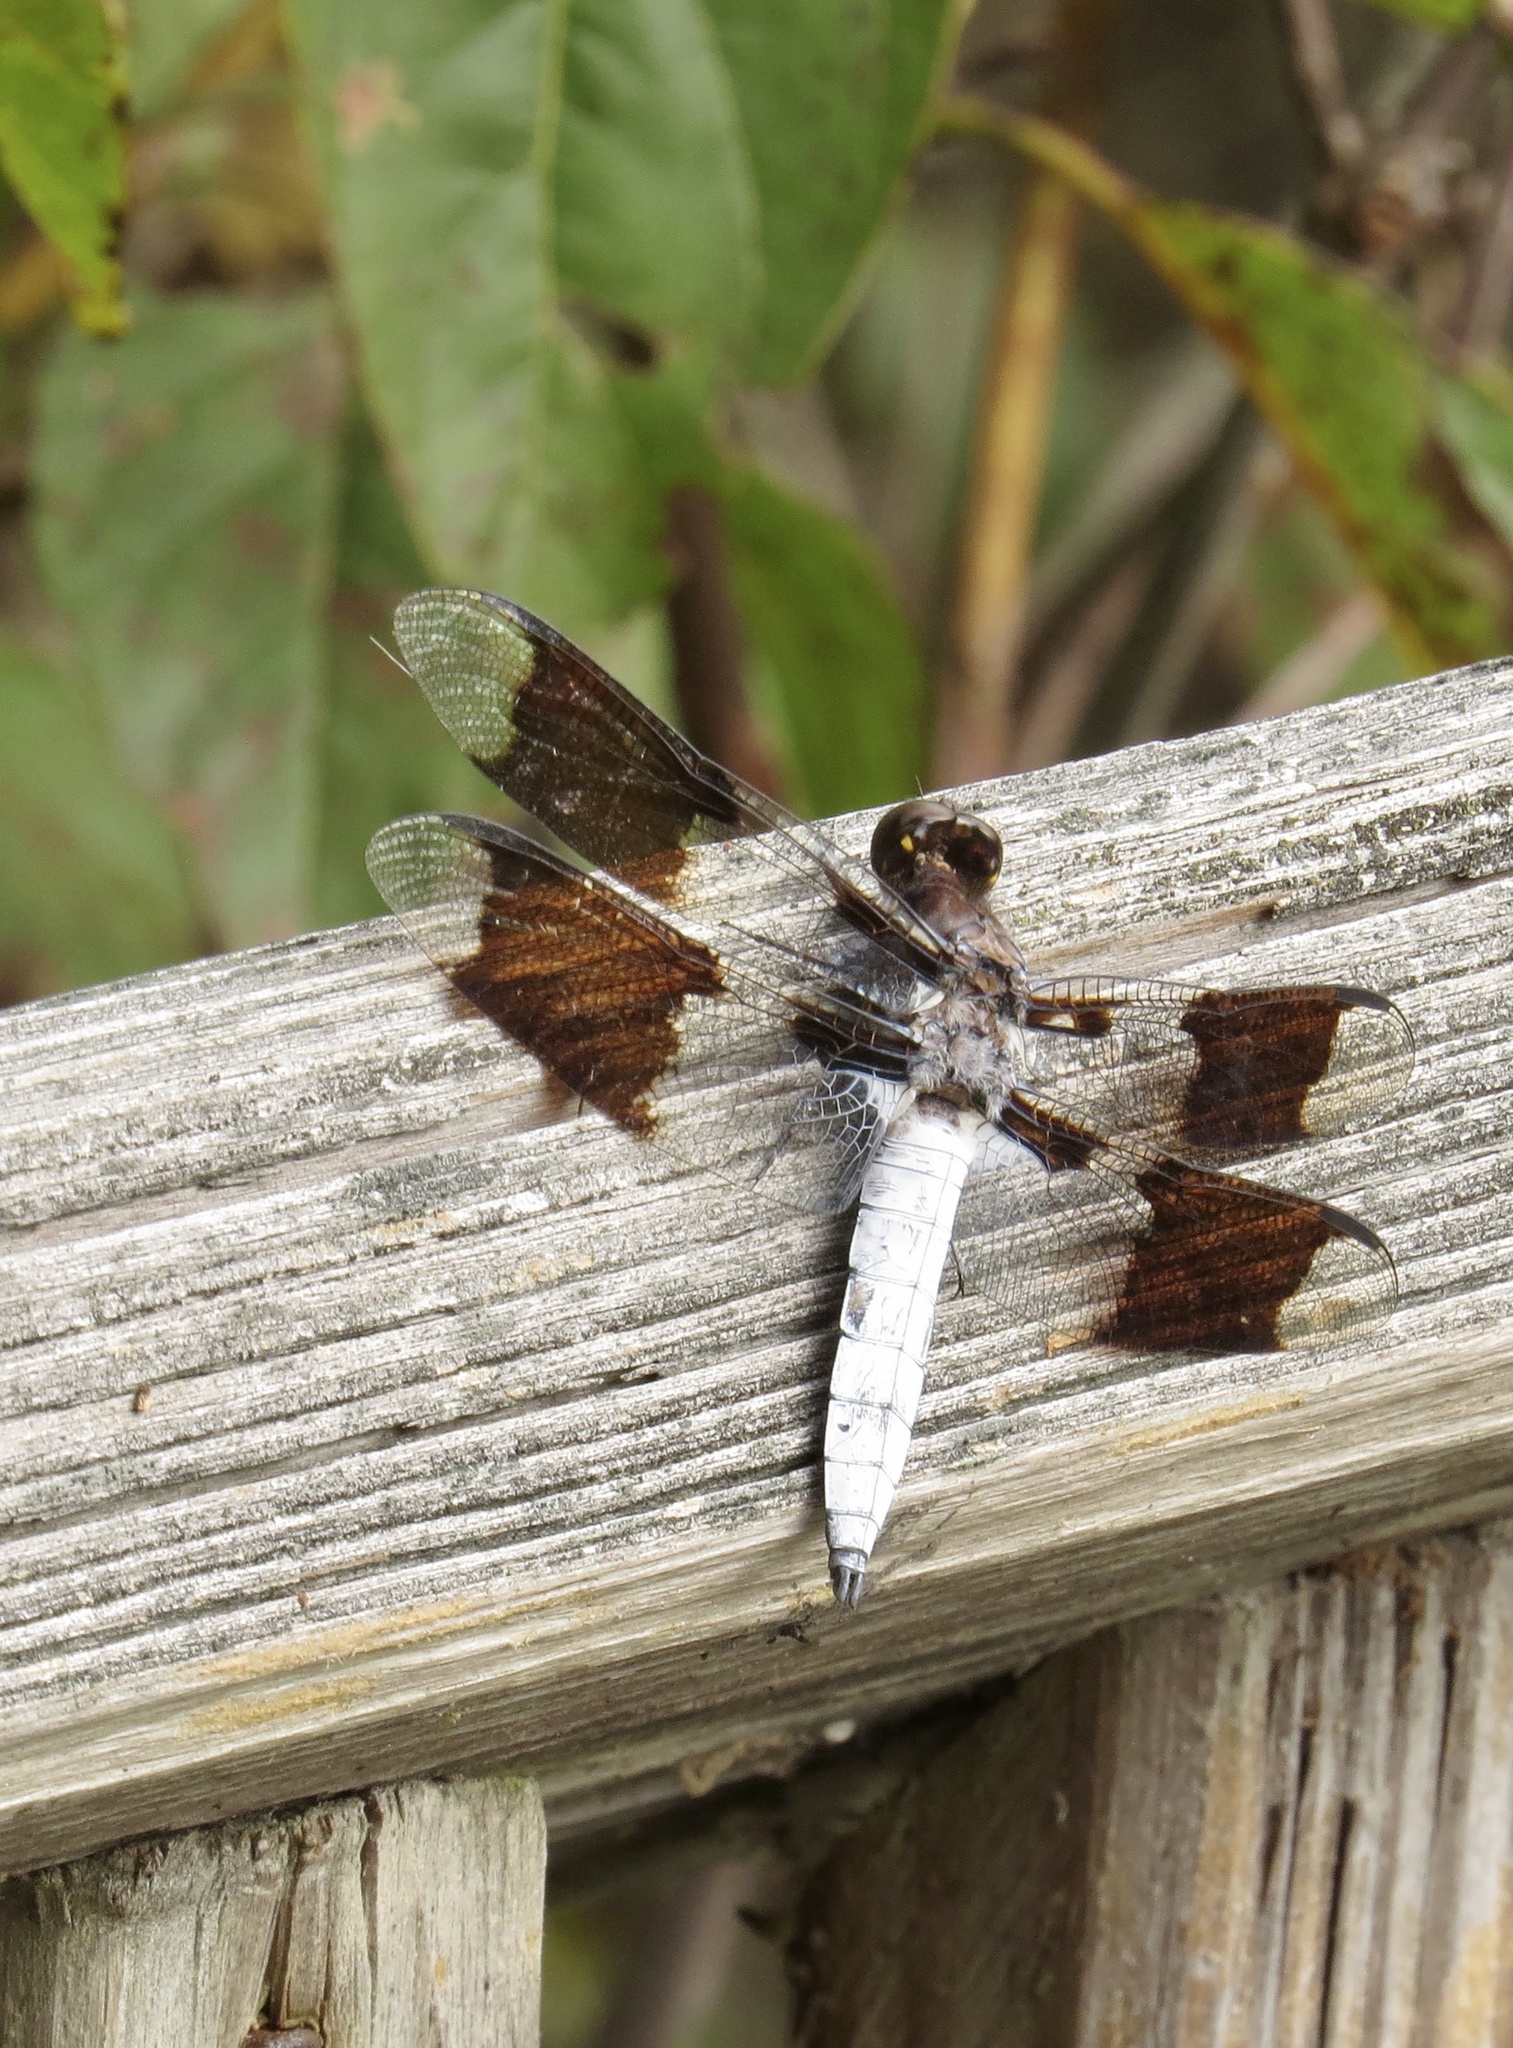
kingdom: Animalia
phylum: Arthropoda
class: Insecta
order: Odonata
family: Libellulidae
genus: Plathemis
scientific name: Plathemis lydia
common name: Common whitetail
